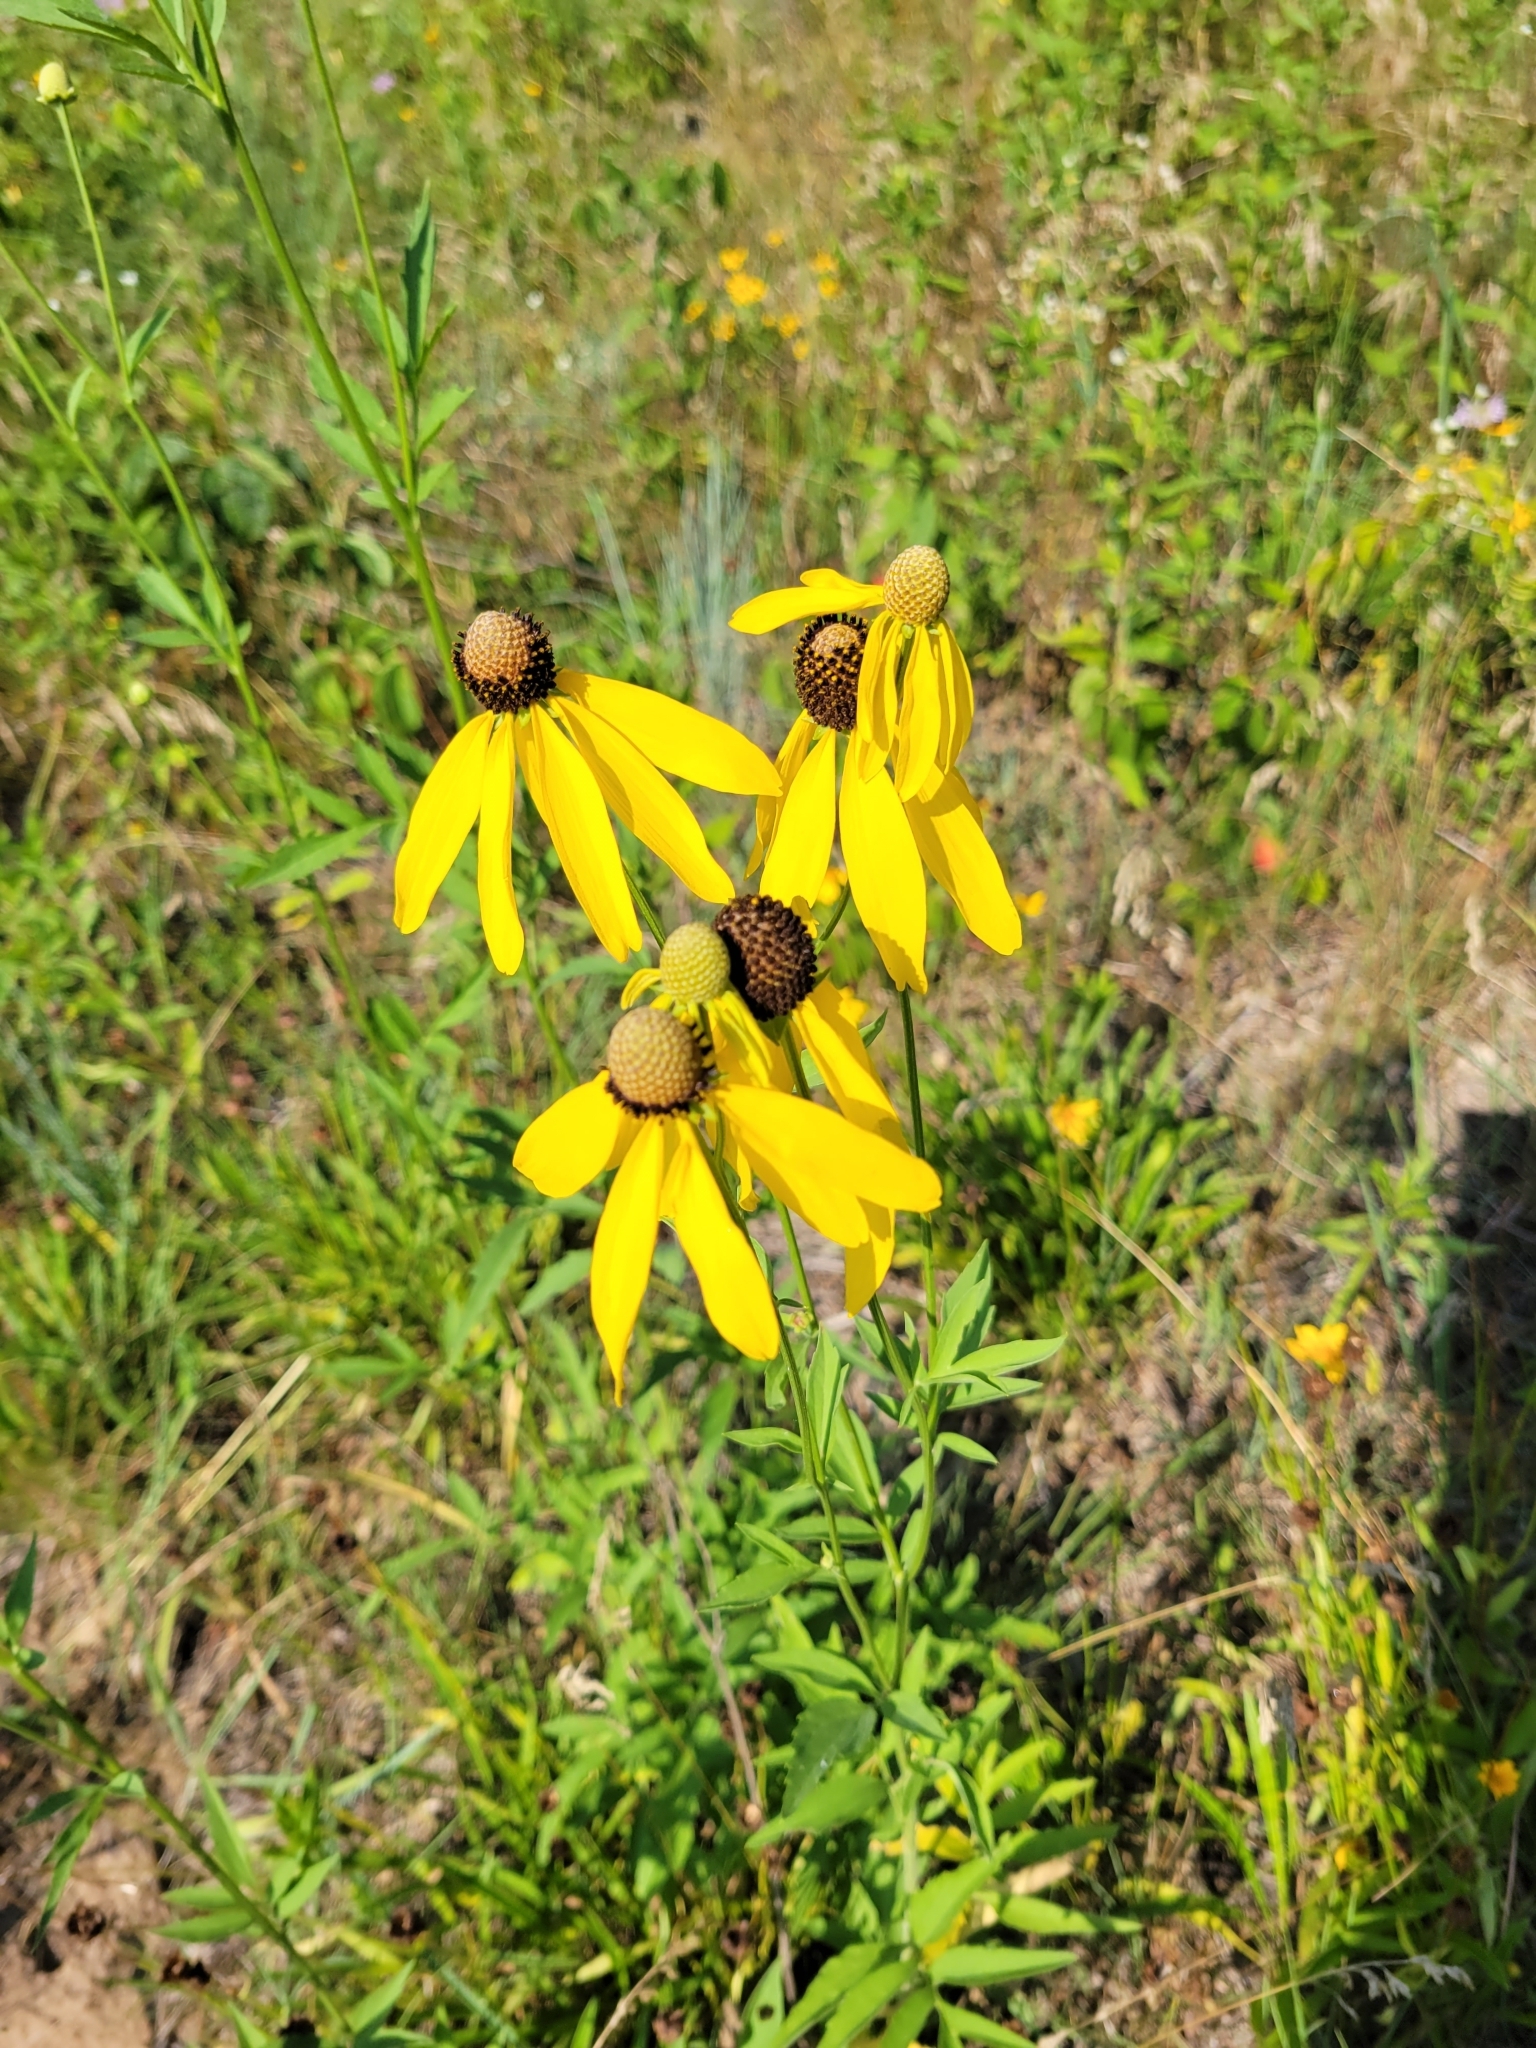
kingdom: Plantae
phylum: Tracheophyta
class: Magnoliopsida
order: Asterales
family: Asteraceae
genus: Ratibida
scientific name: Ratibida pinnata
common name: Drooping prairie-coneflower
